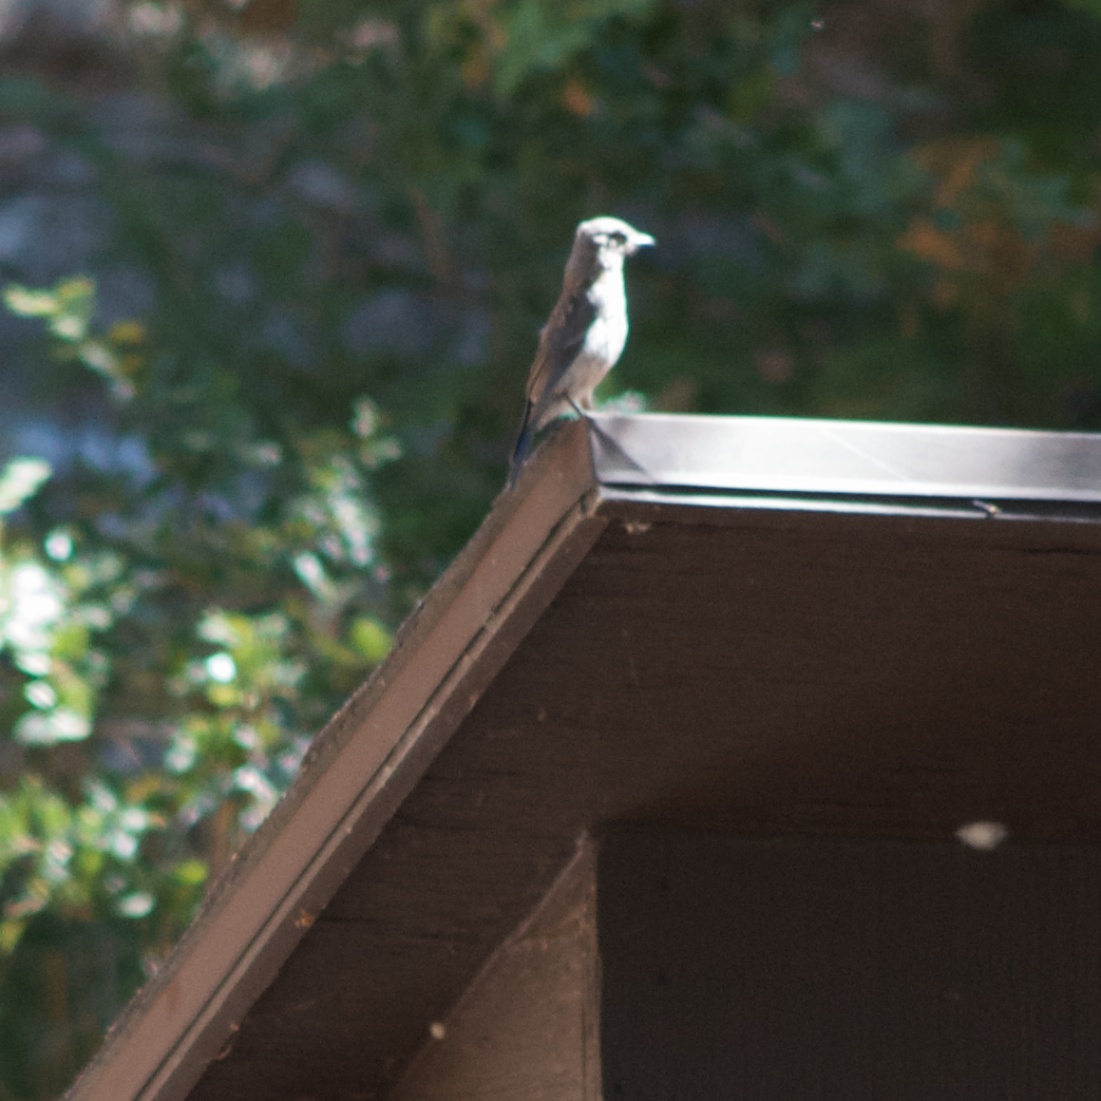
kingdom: Animalia
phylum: Chordata
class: Aves
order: Passeriformes
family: Turdidae
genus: Sialia
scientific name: Sialia mexicana
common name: Western bluebird
